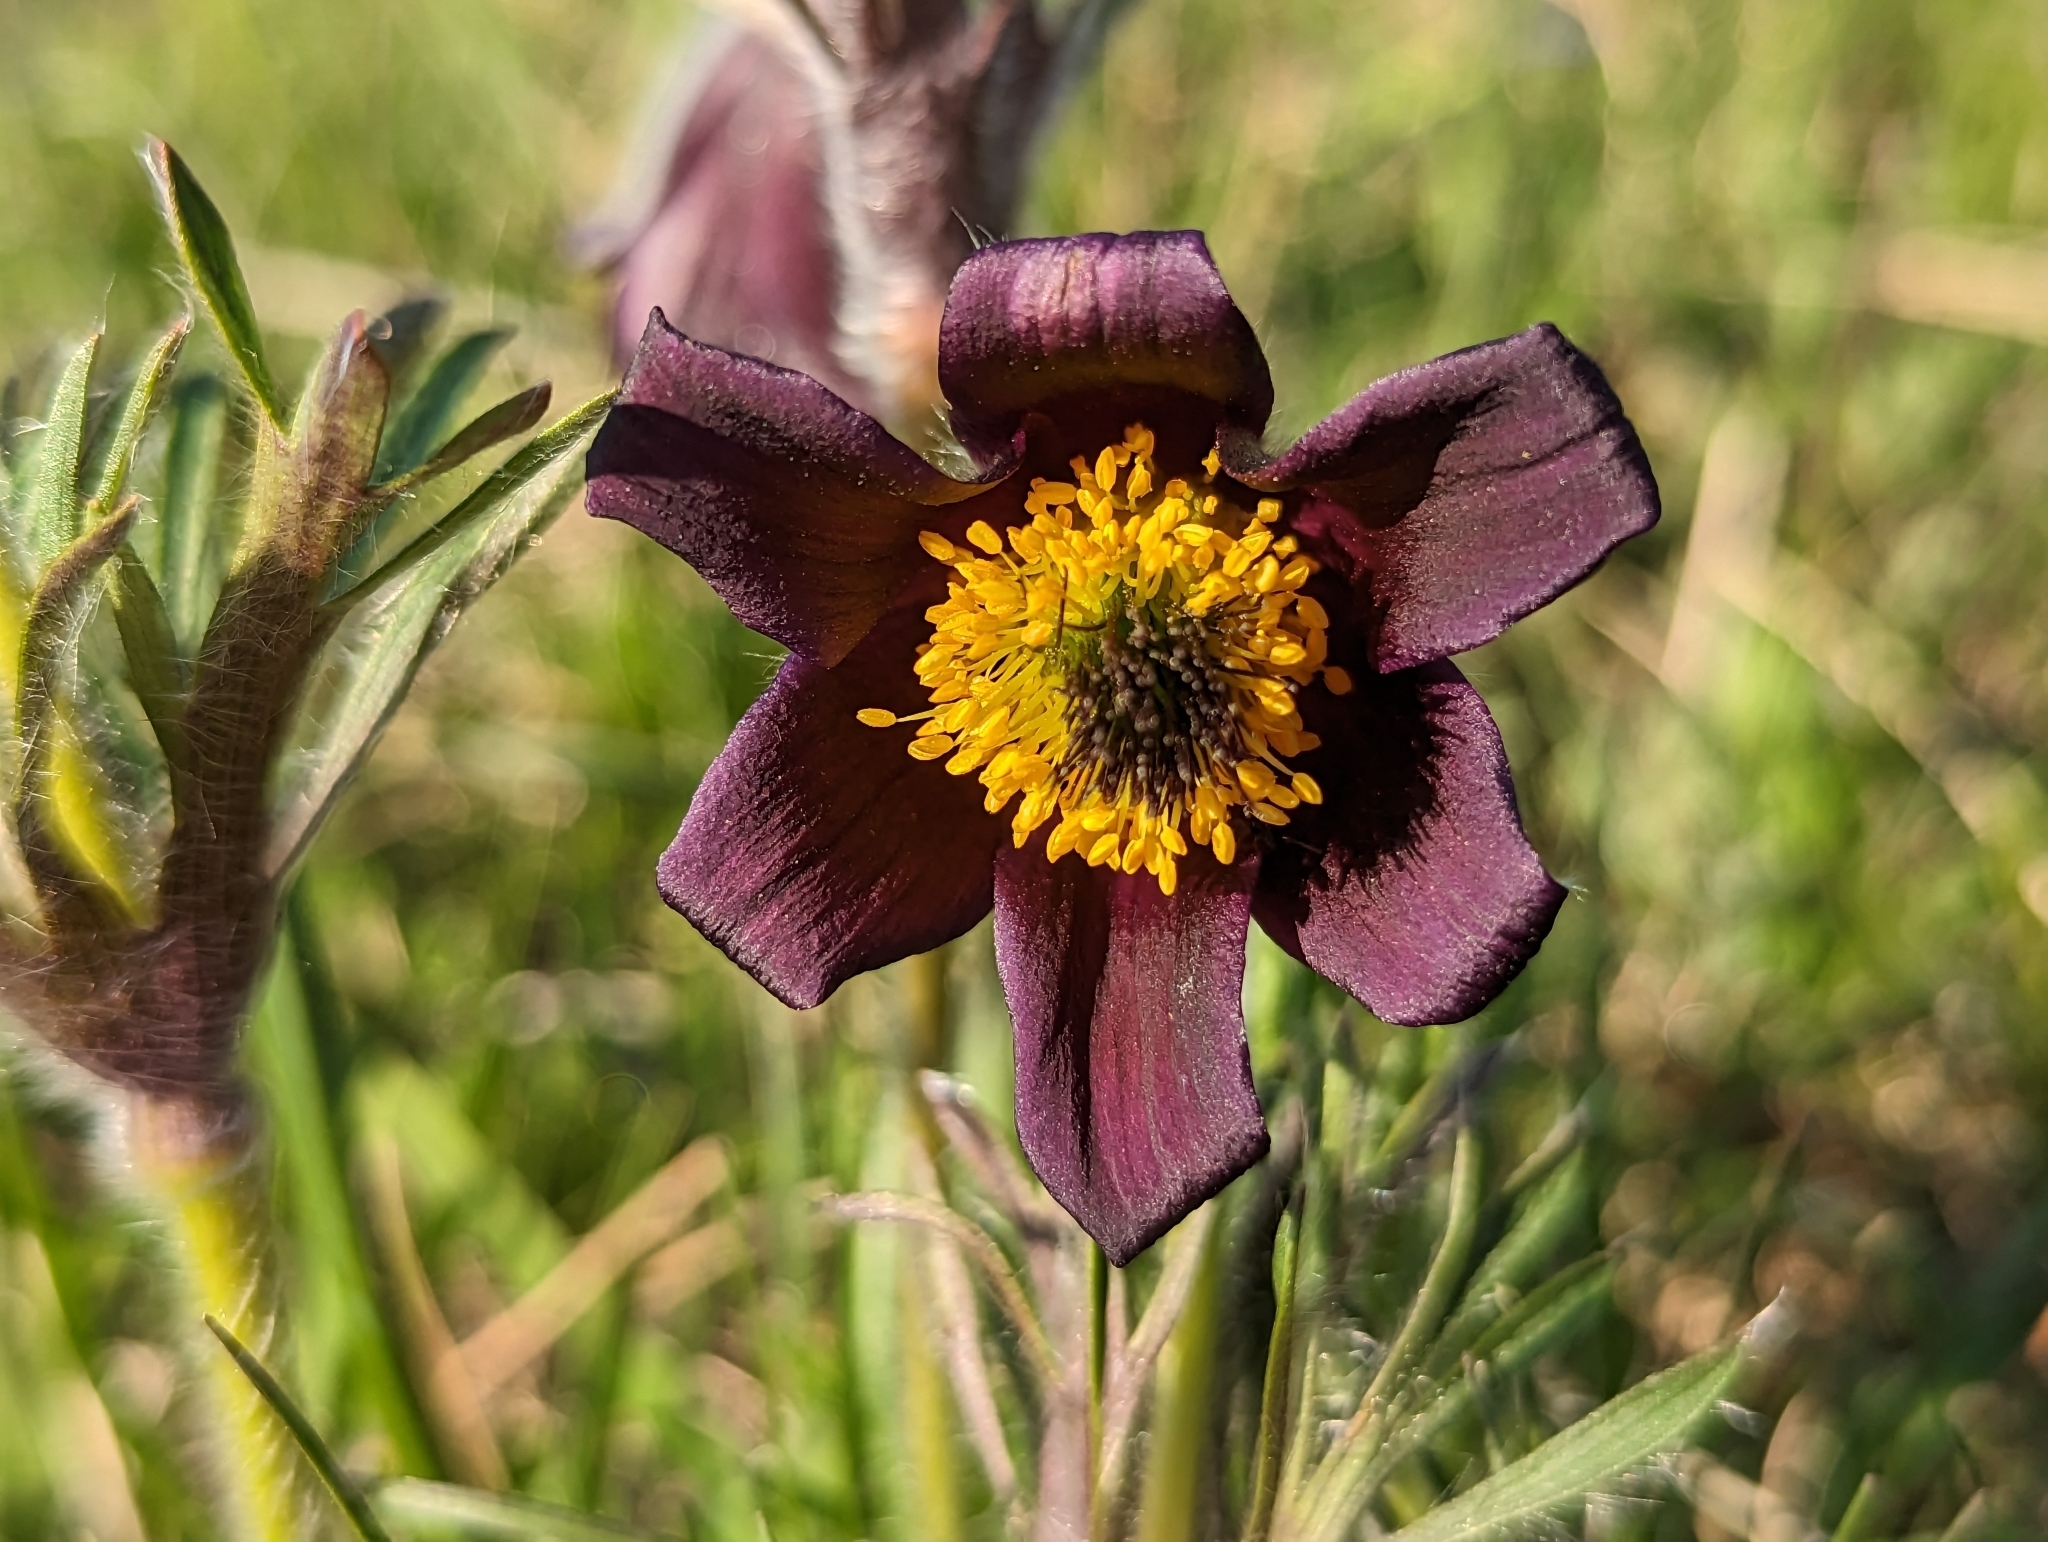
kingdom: Plantae
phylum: Tracheophyta
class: Magnoliopsida
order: Ranunculales
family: Ranunculaceae
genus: Pulsatilla
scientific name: Pulsatilla pratensis
